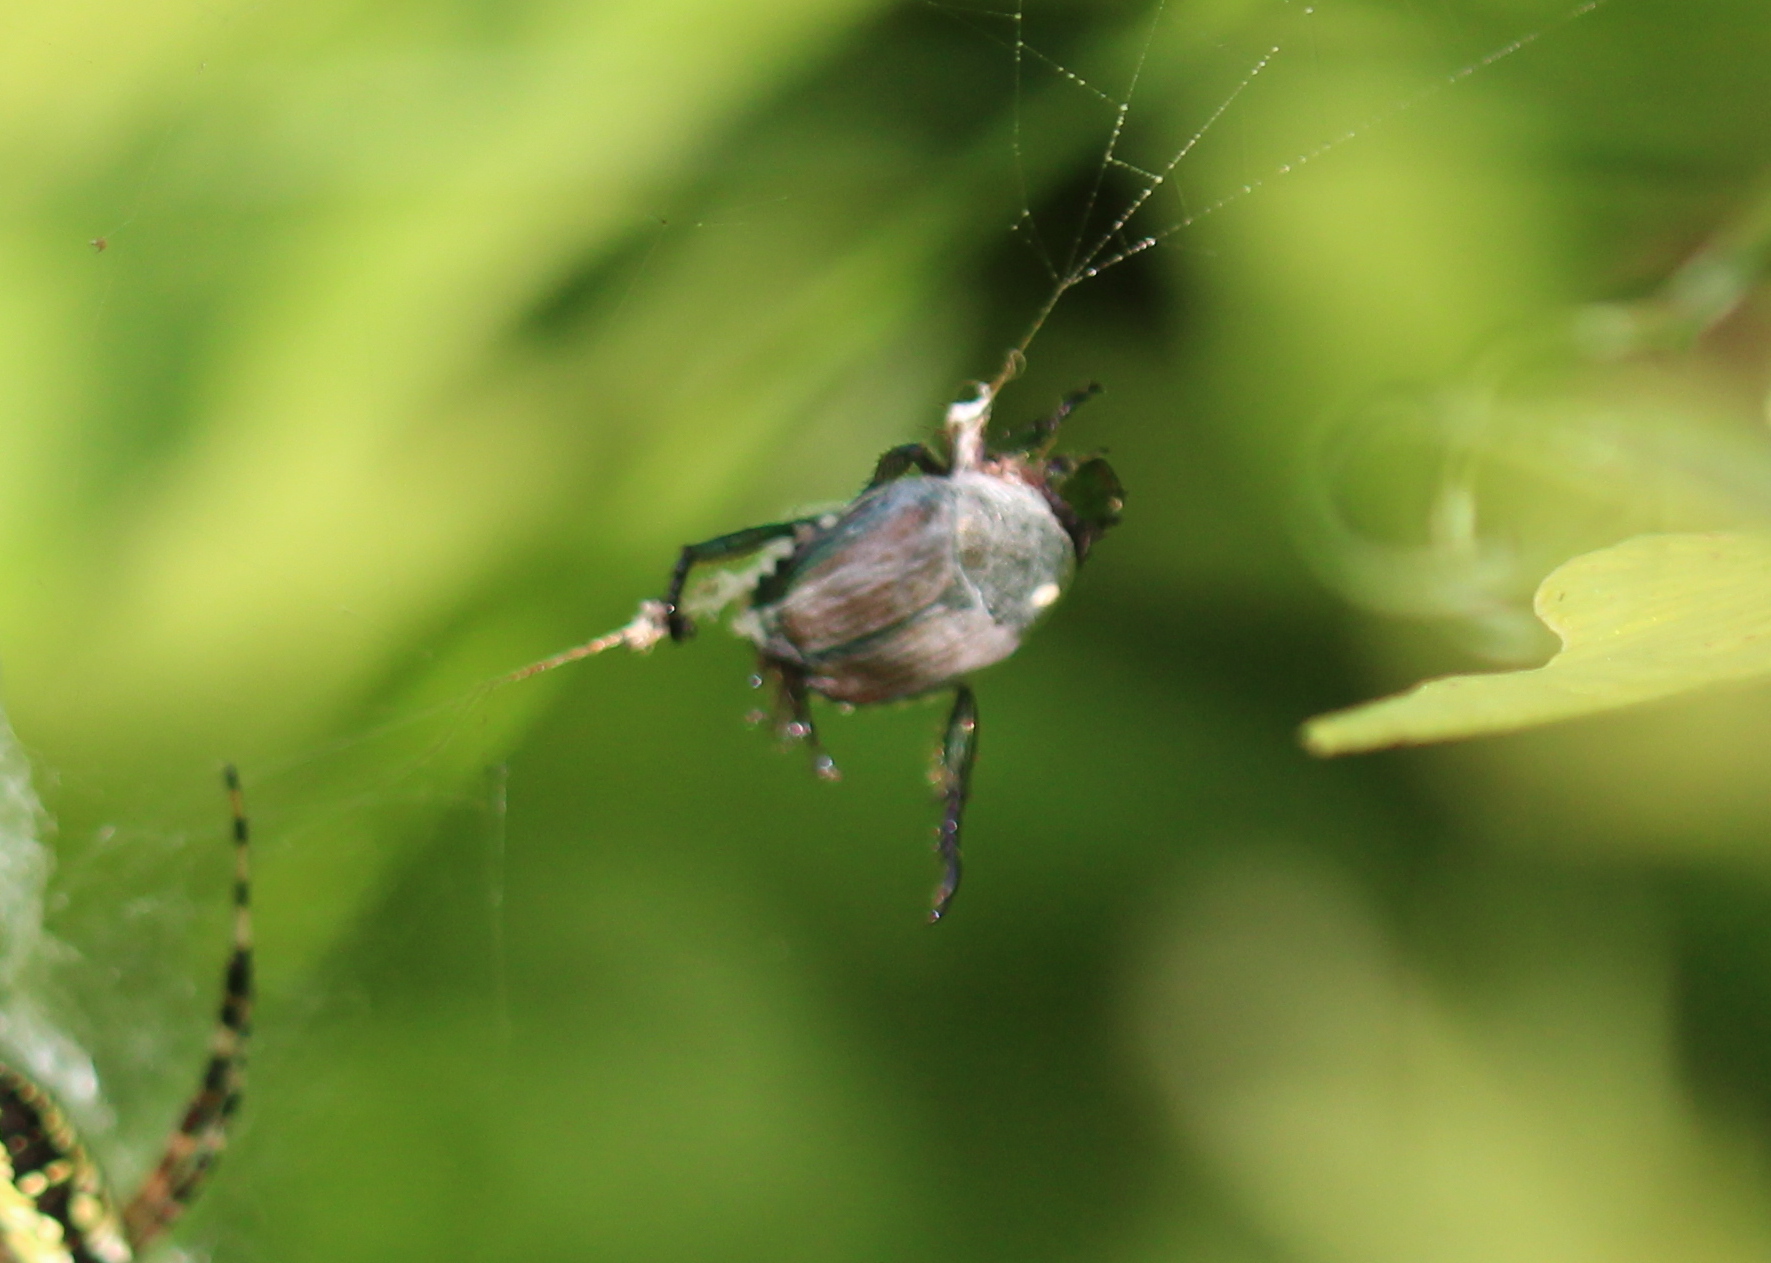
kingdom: Animalia
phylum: Arthropoda
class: Insecta
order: Diptera
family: Tachinidae
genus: Istocheta
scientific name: Istocheta aldrichi
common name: Parasitic wasp
